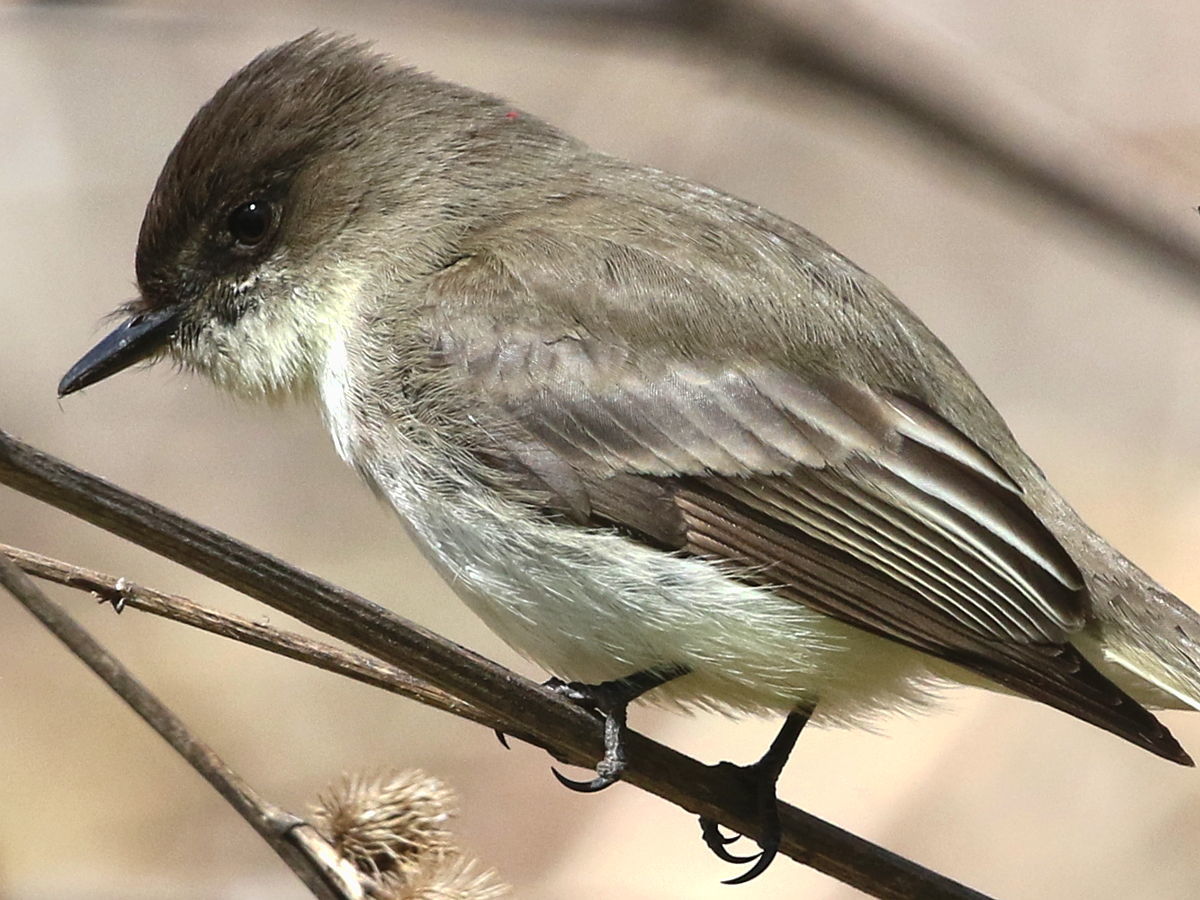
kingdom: Animalia
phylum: Chordata
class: Aves
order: Passeriformes
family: Tyrannidae
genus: Sayornis
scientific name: Sayornis phoebe
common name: Eastern phoebe
